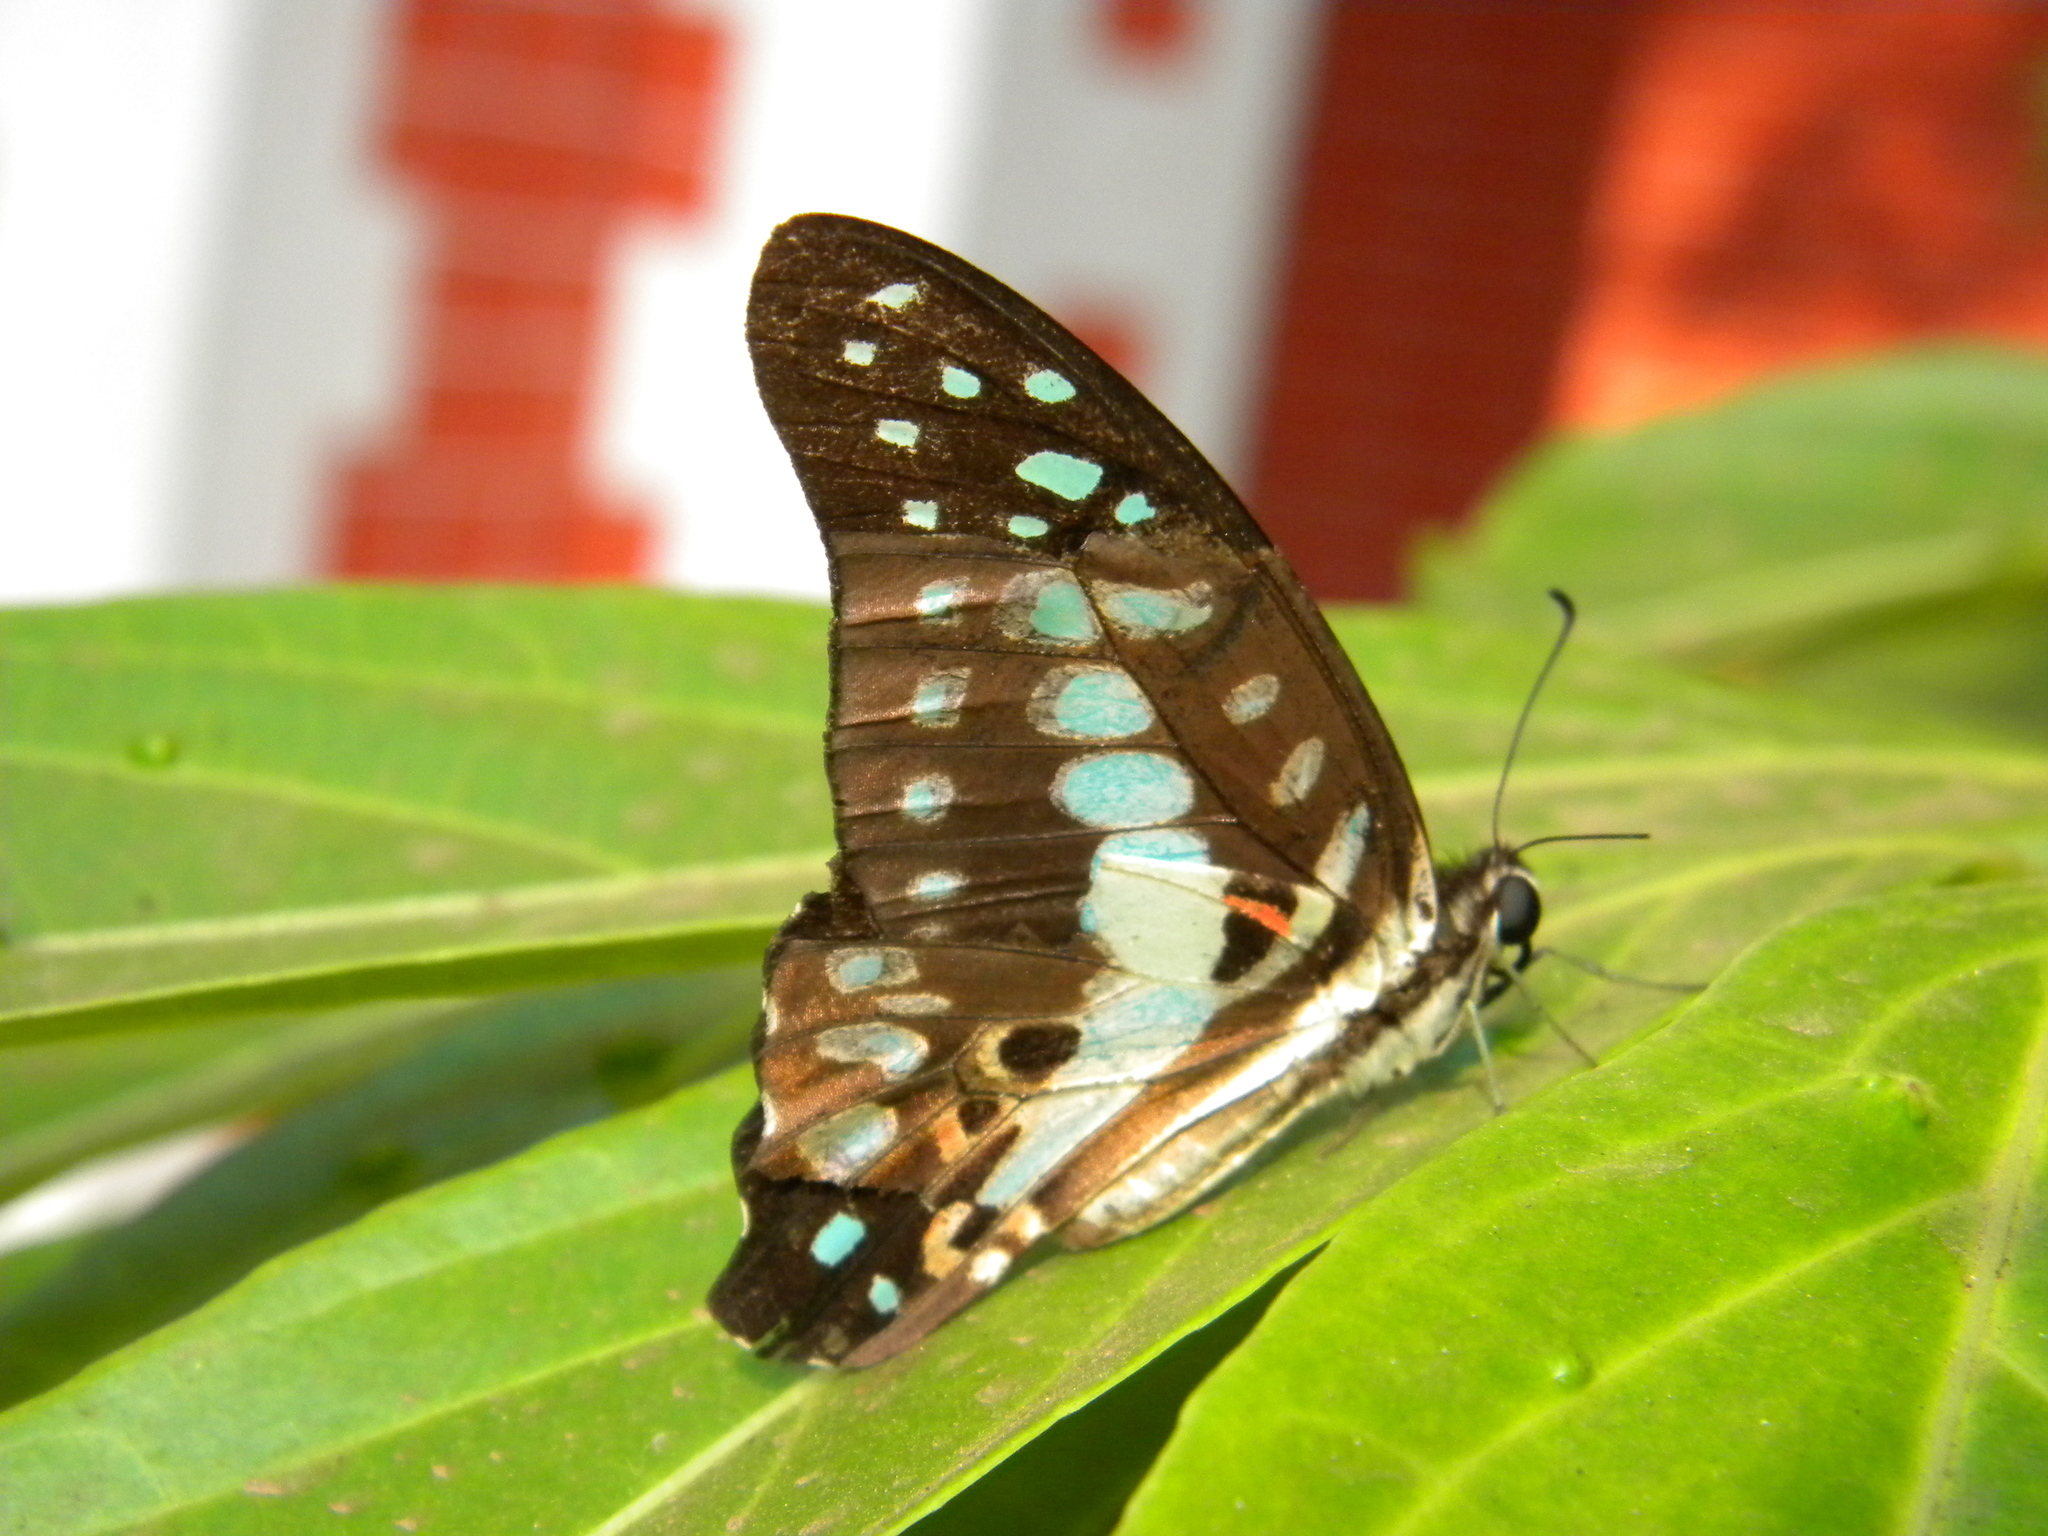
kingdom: Animalia
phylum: Arthropoda
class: Insecta
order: Lepidoptera
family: Papilionidae
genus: Graphium
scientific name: Graphium doson
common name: Common jay
